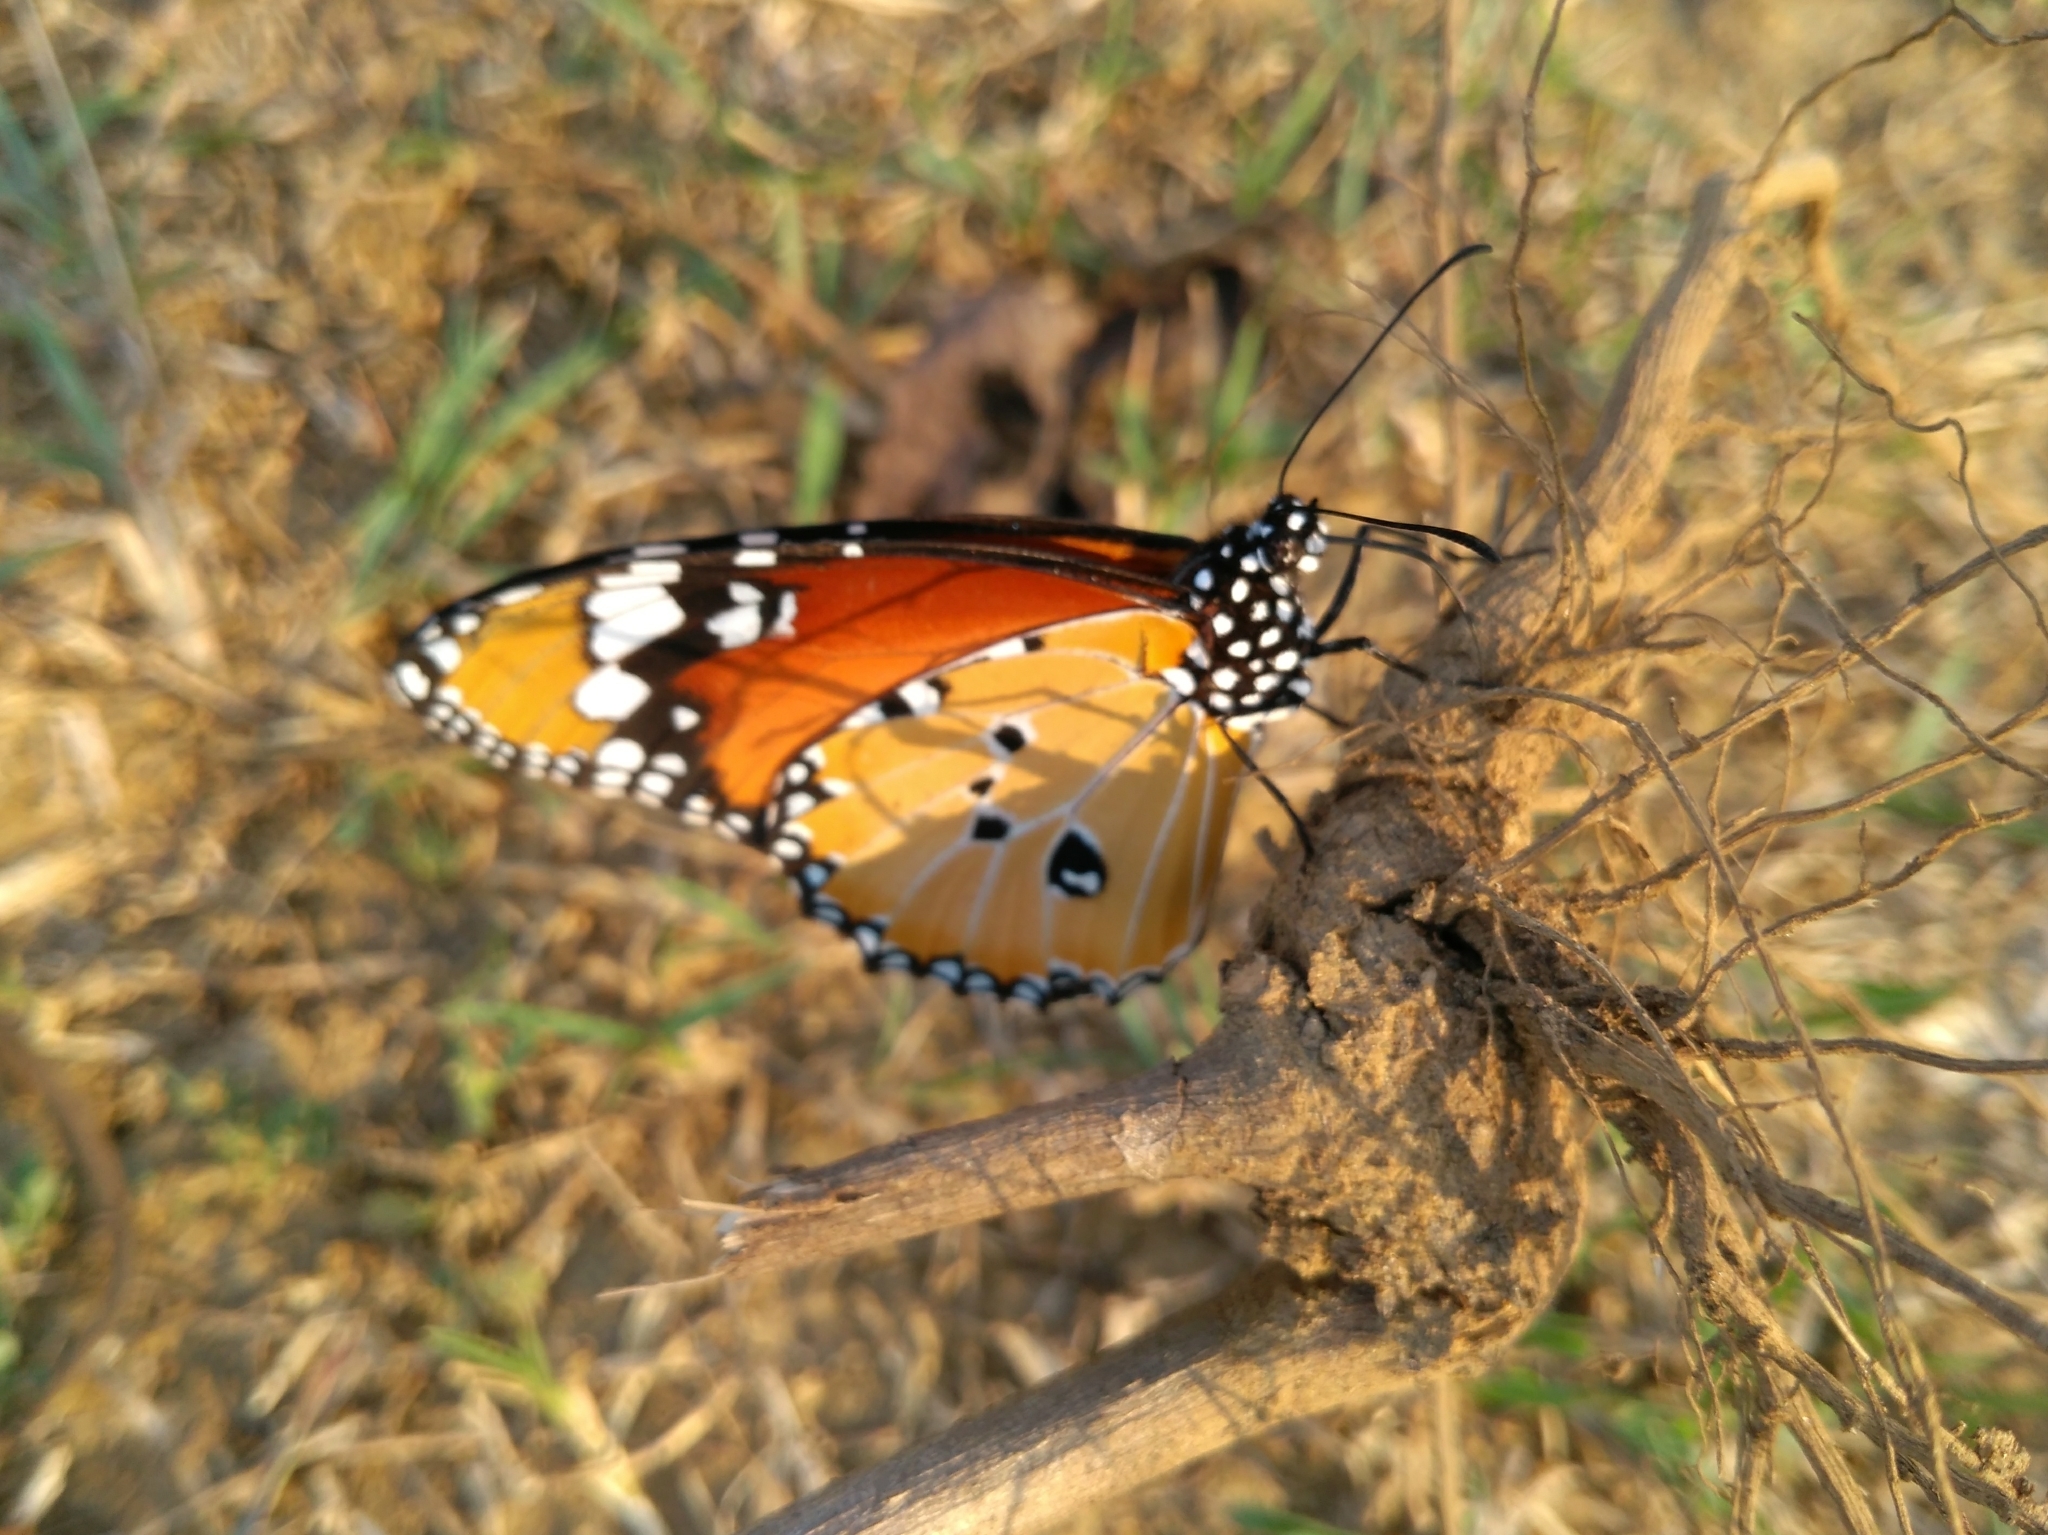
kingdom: Animalia
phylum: Arthropoda
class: Insecta
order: Lepidoptera
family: Nymphalidae
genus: Danaus
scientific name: Danaus chrysippus
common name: Plain tiger
